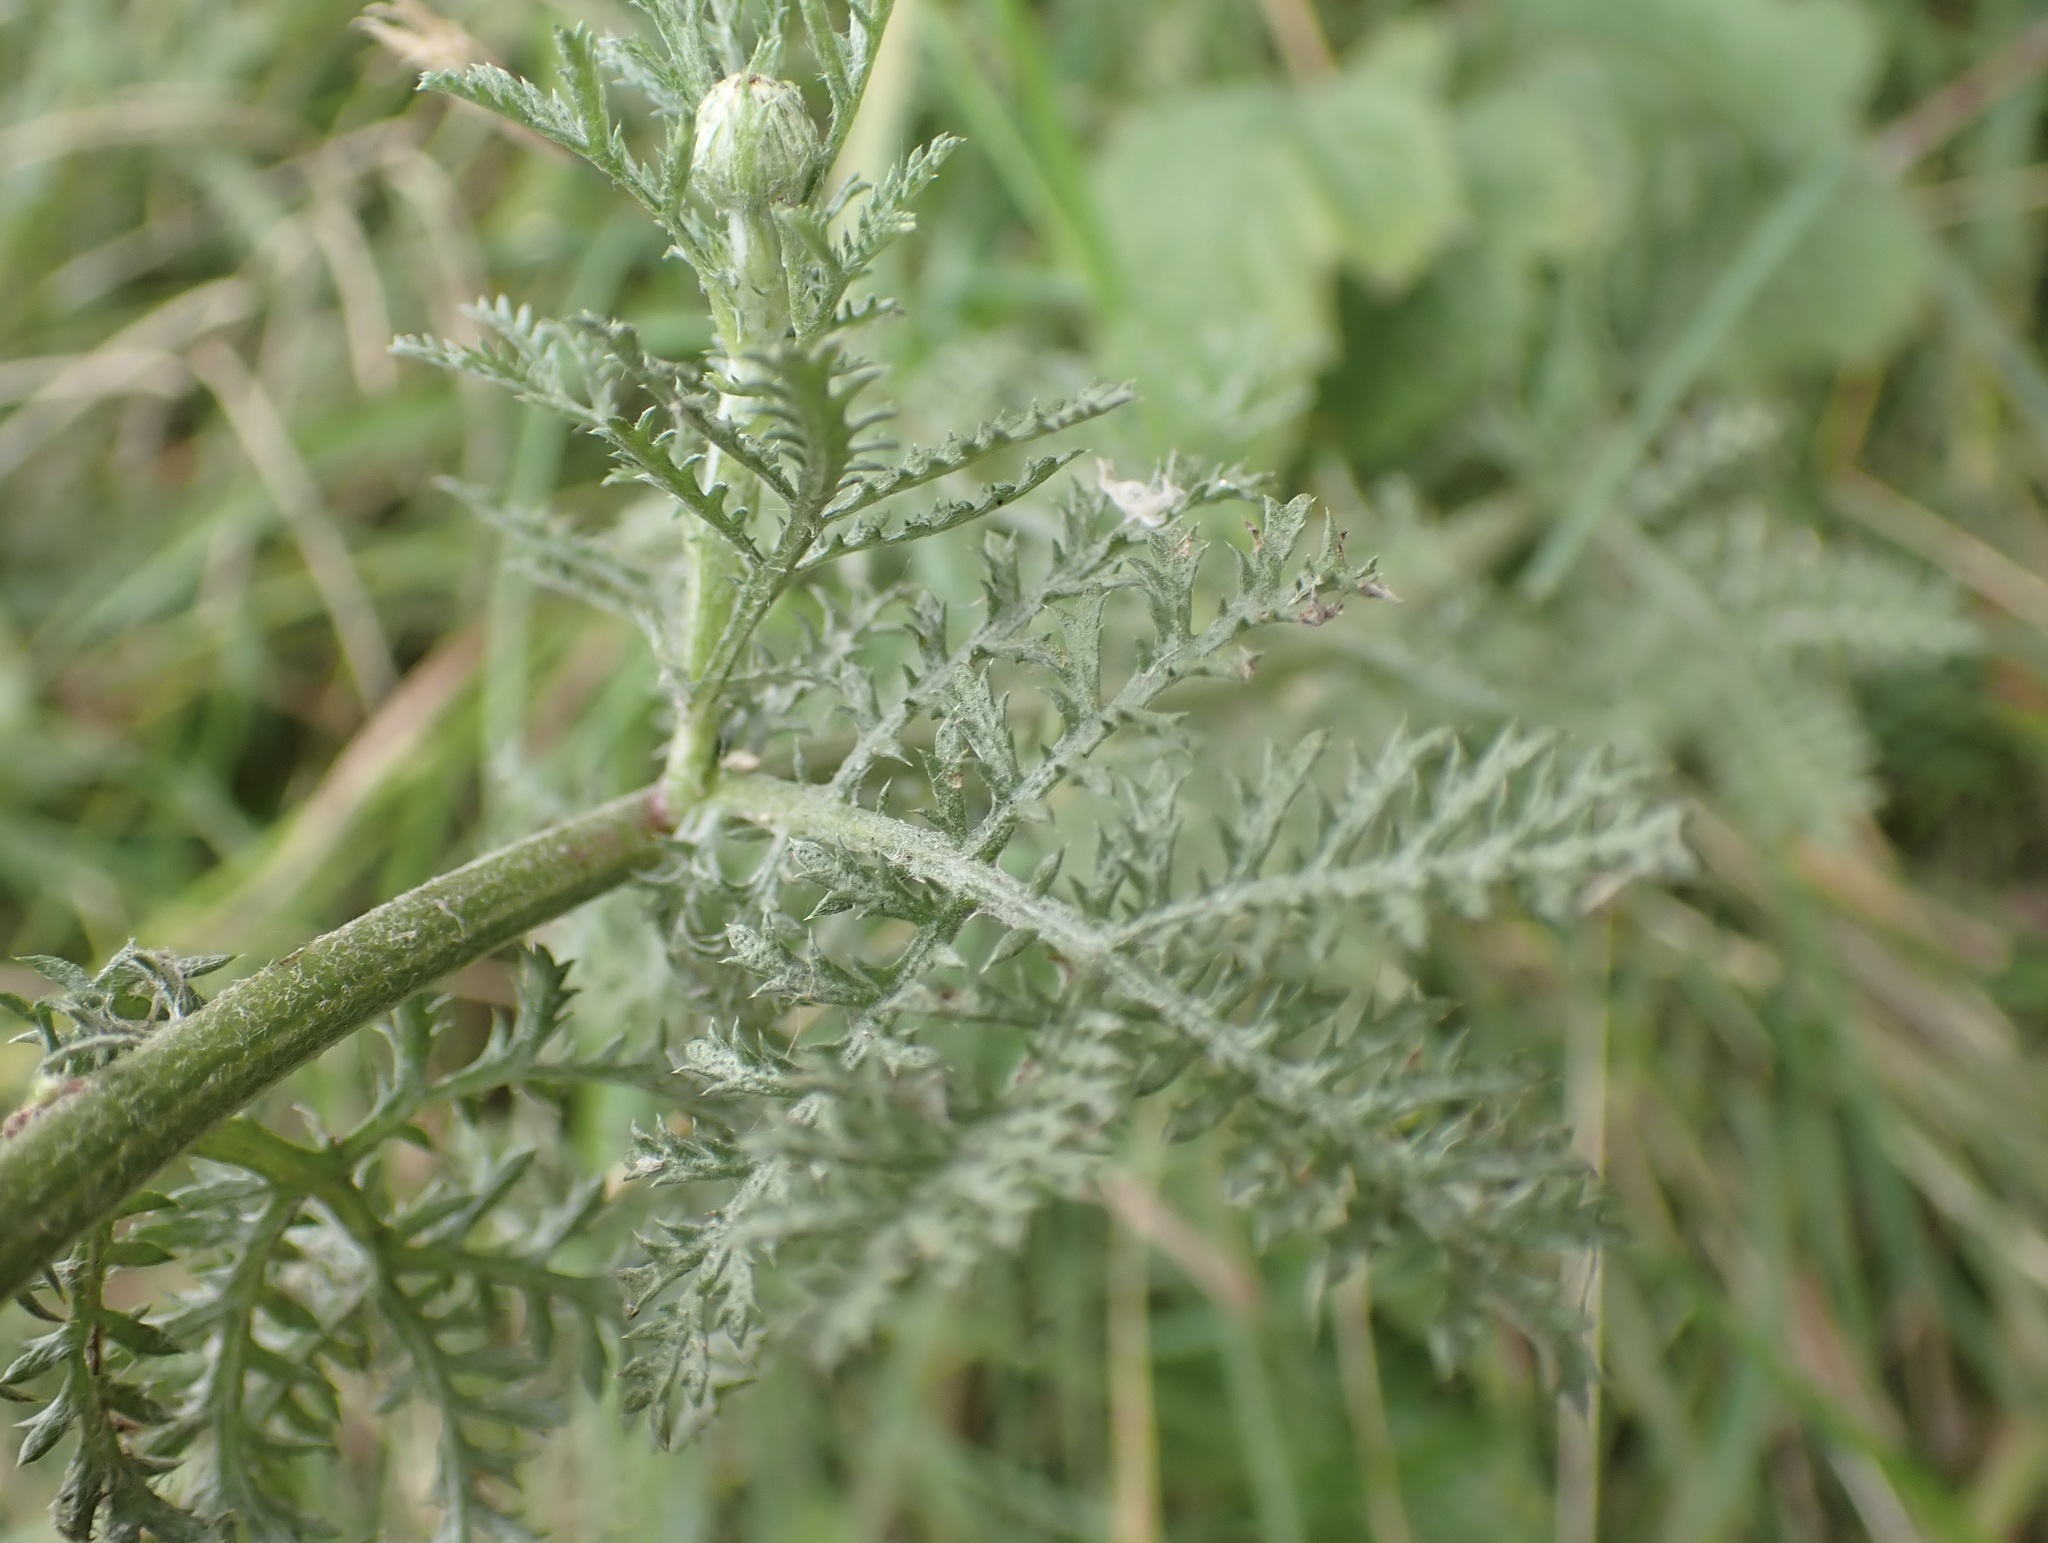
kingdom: Plantae
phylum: Tracheophyta
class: Magnoliopsida
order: Asterales
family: Asteraceae
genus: Cota
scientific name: Cota tinctoria
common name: Golden chamomile
